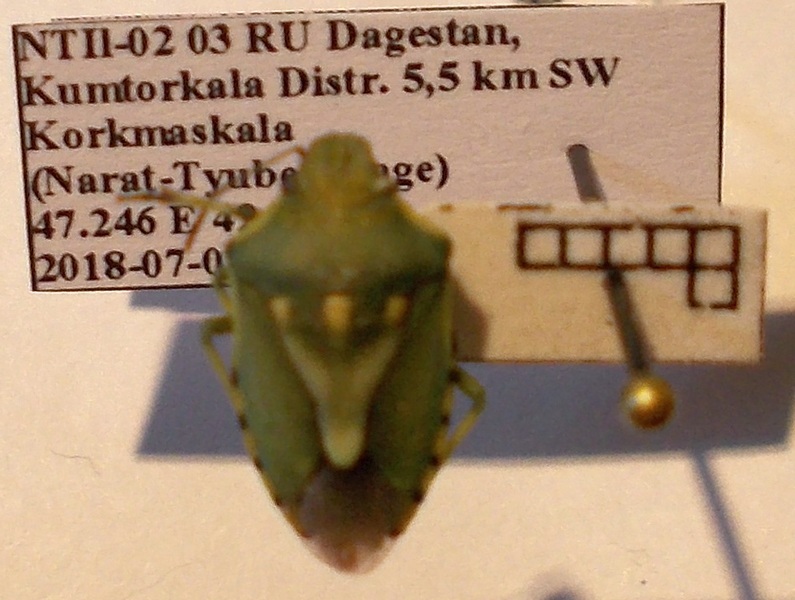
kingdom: Animalia
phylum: Arthropoda
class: Insecta
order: Hemiptera
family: Pentatomidae
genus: Brachynema
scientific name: Brachynema
